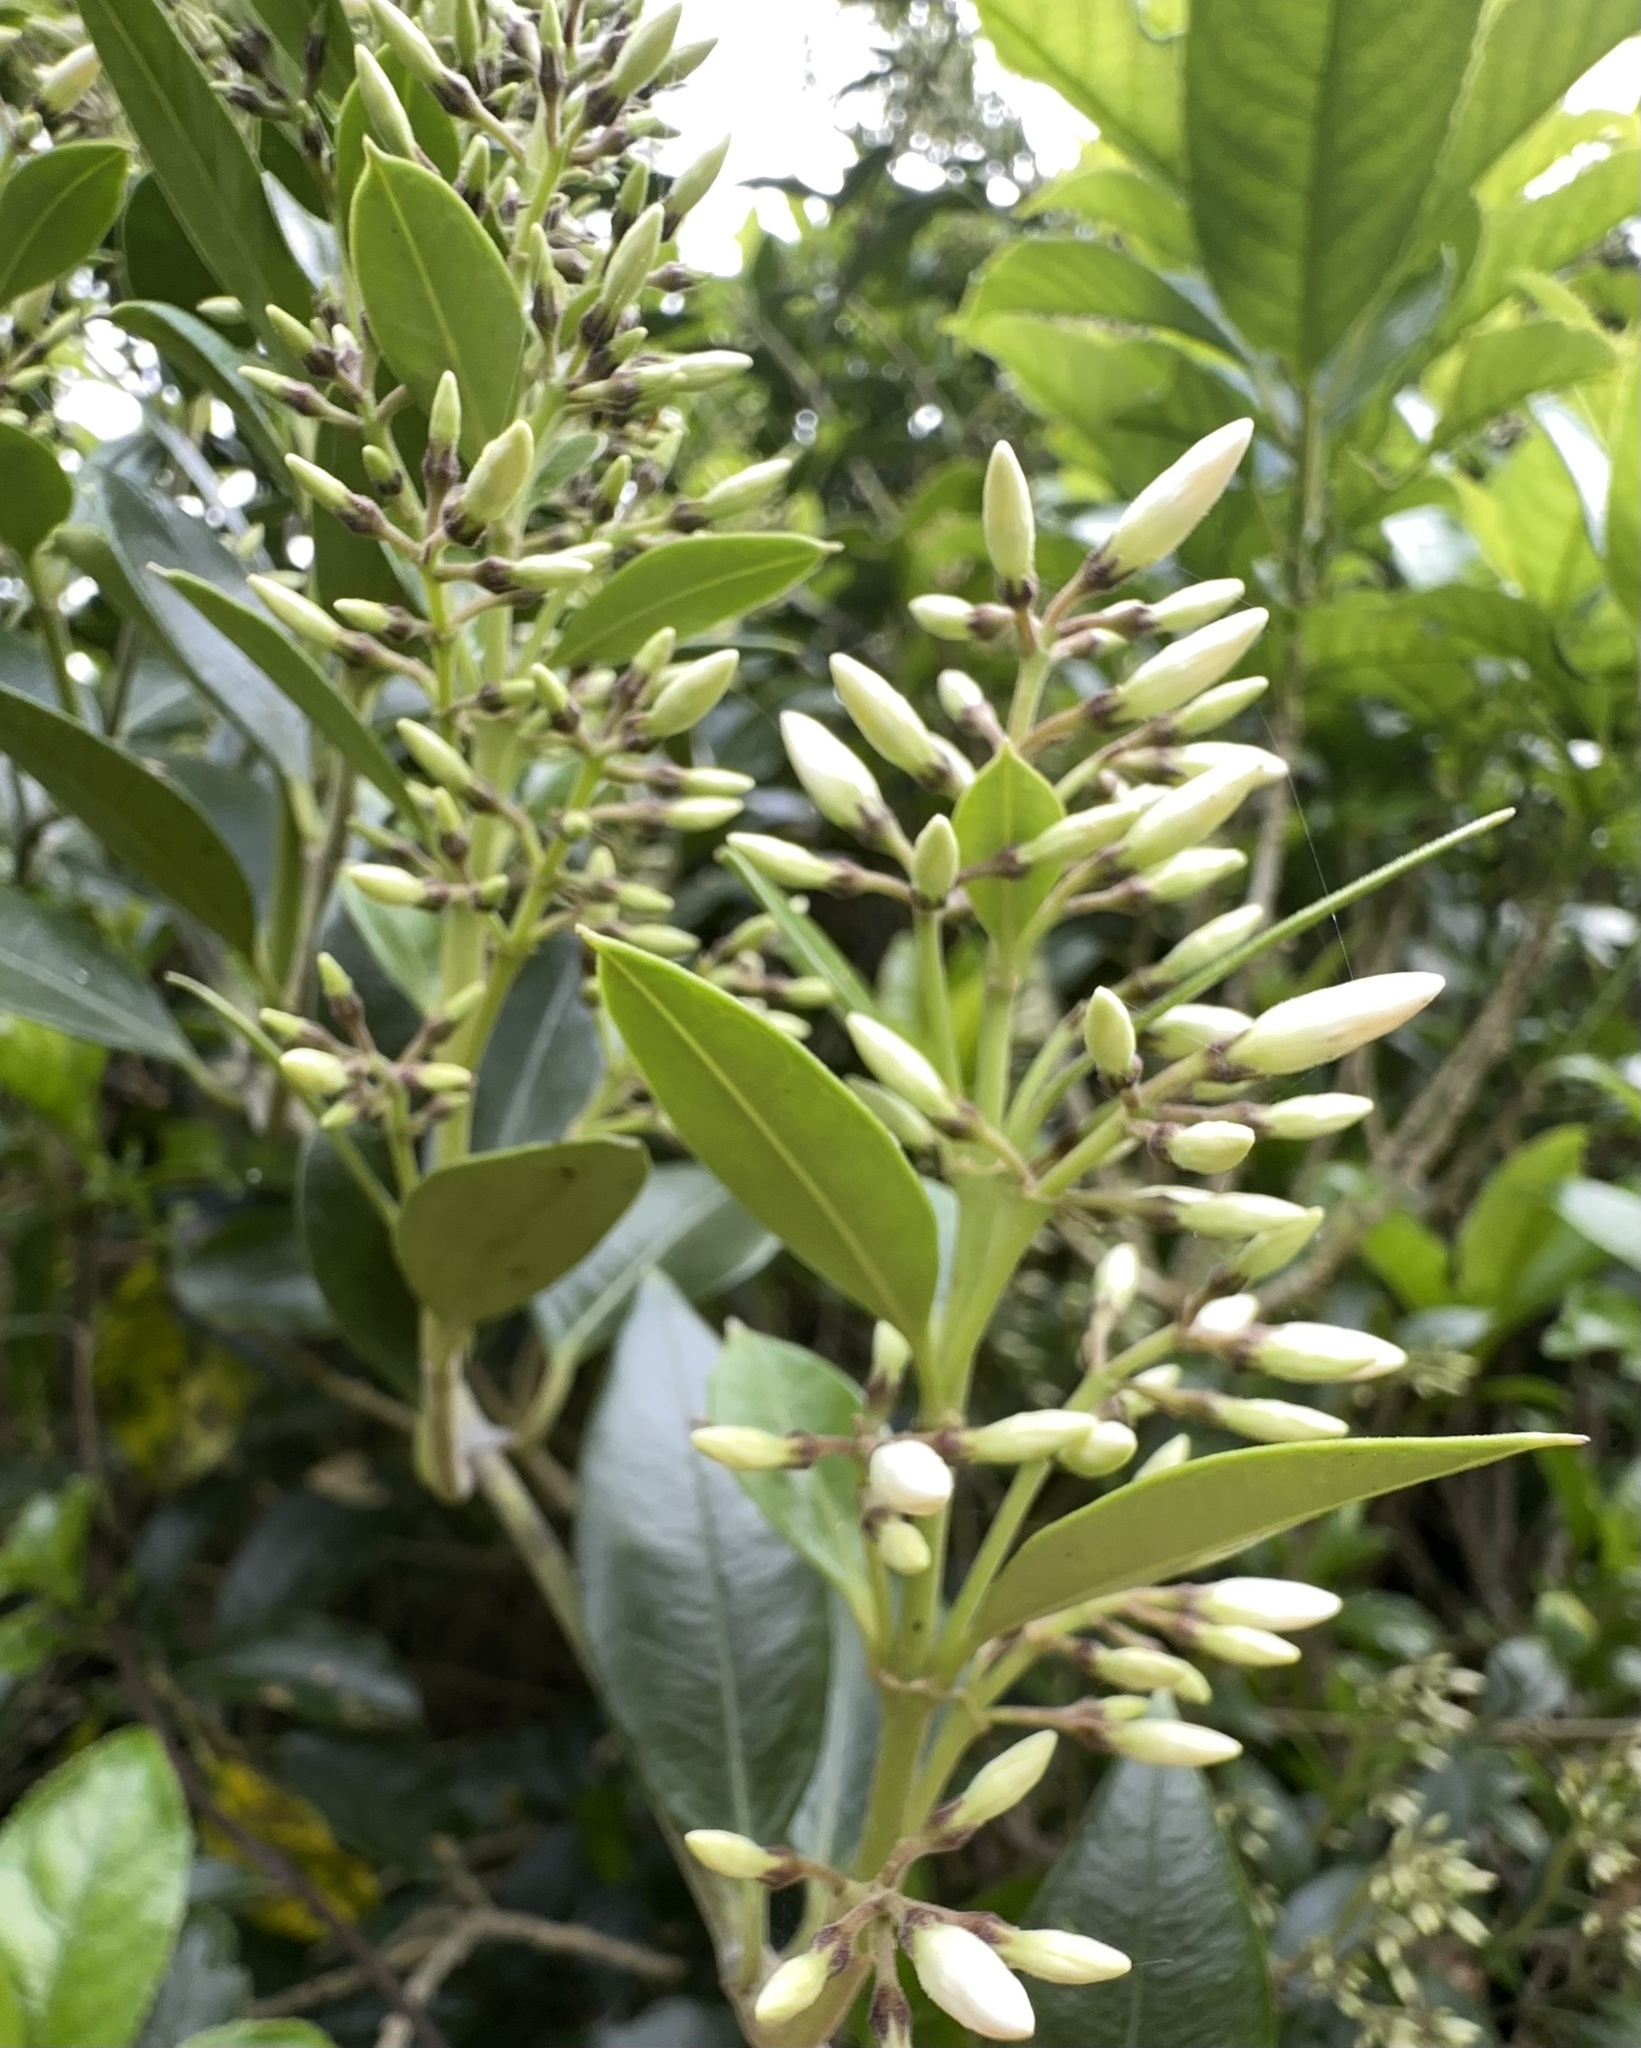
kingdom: Plantae
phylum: Tracheophyta
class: Magnoliopsida
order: Gentianales
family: Apocynaceae
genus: Parsonsia
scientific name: Parsonsia heterophylla
